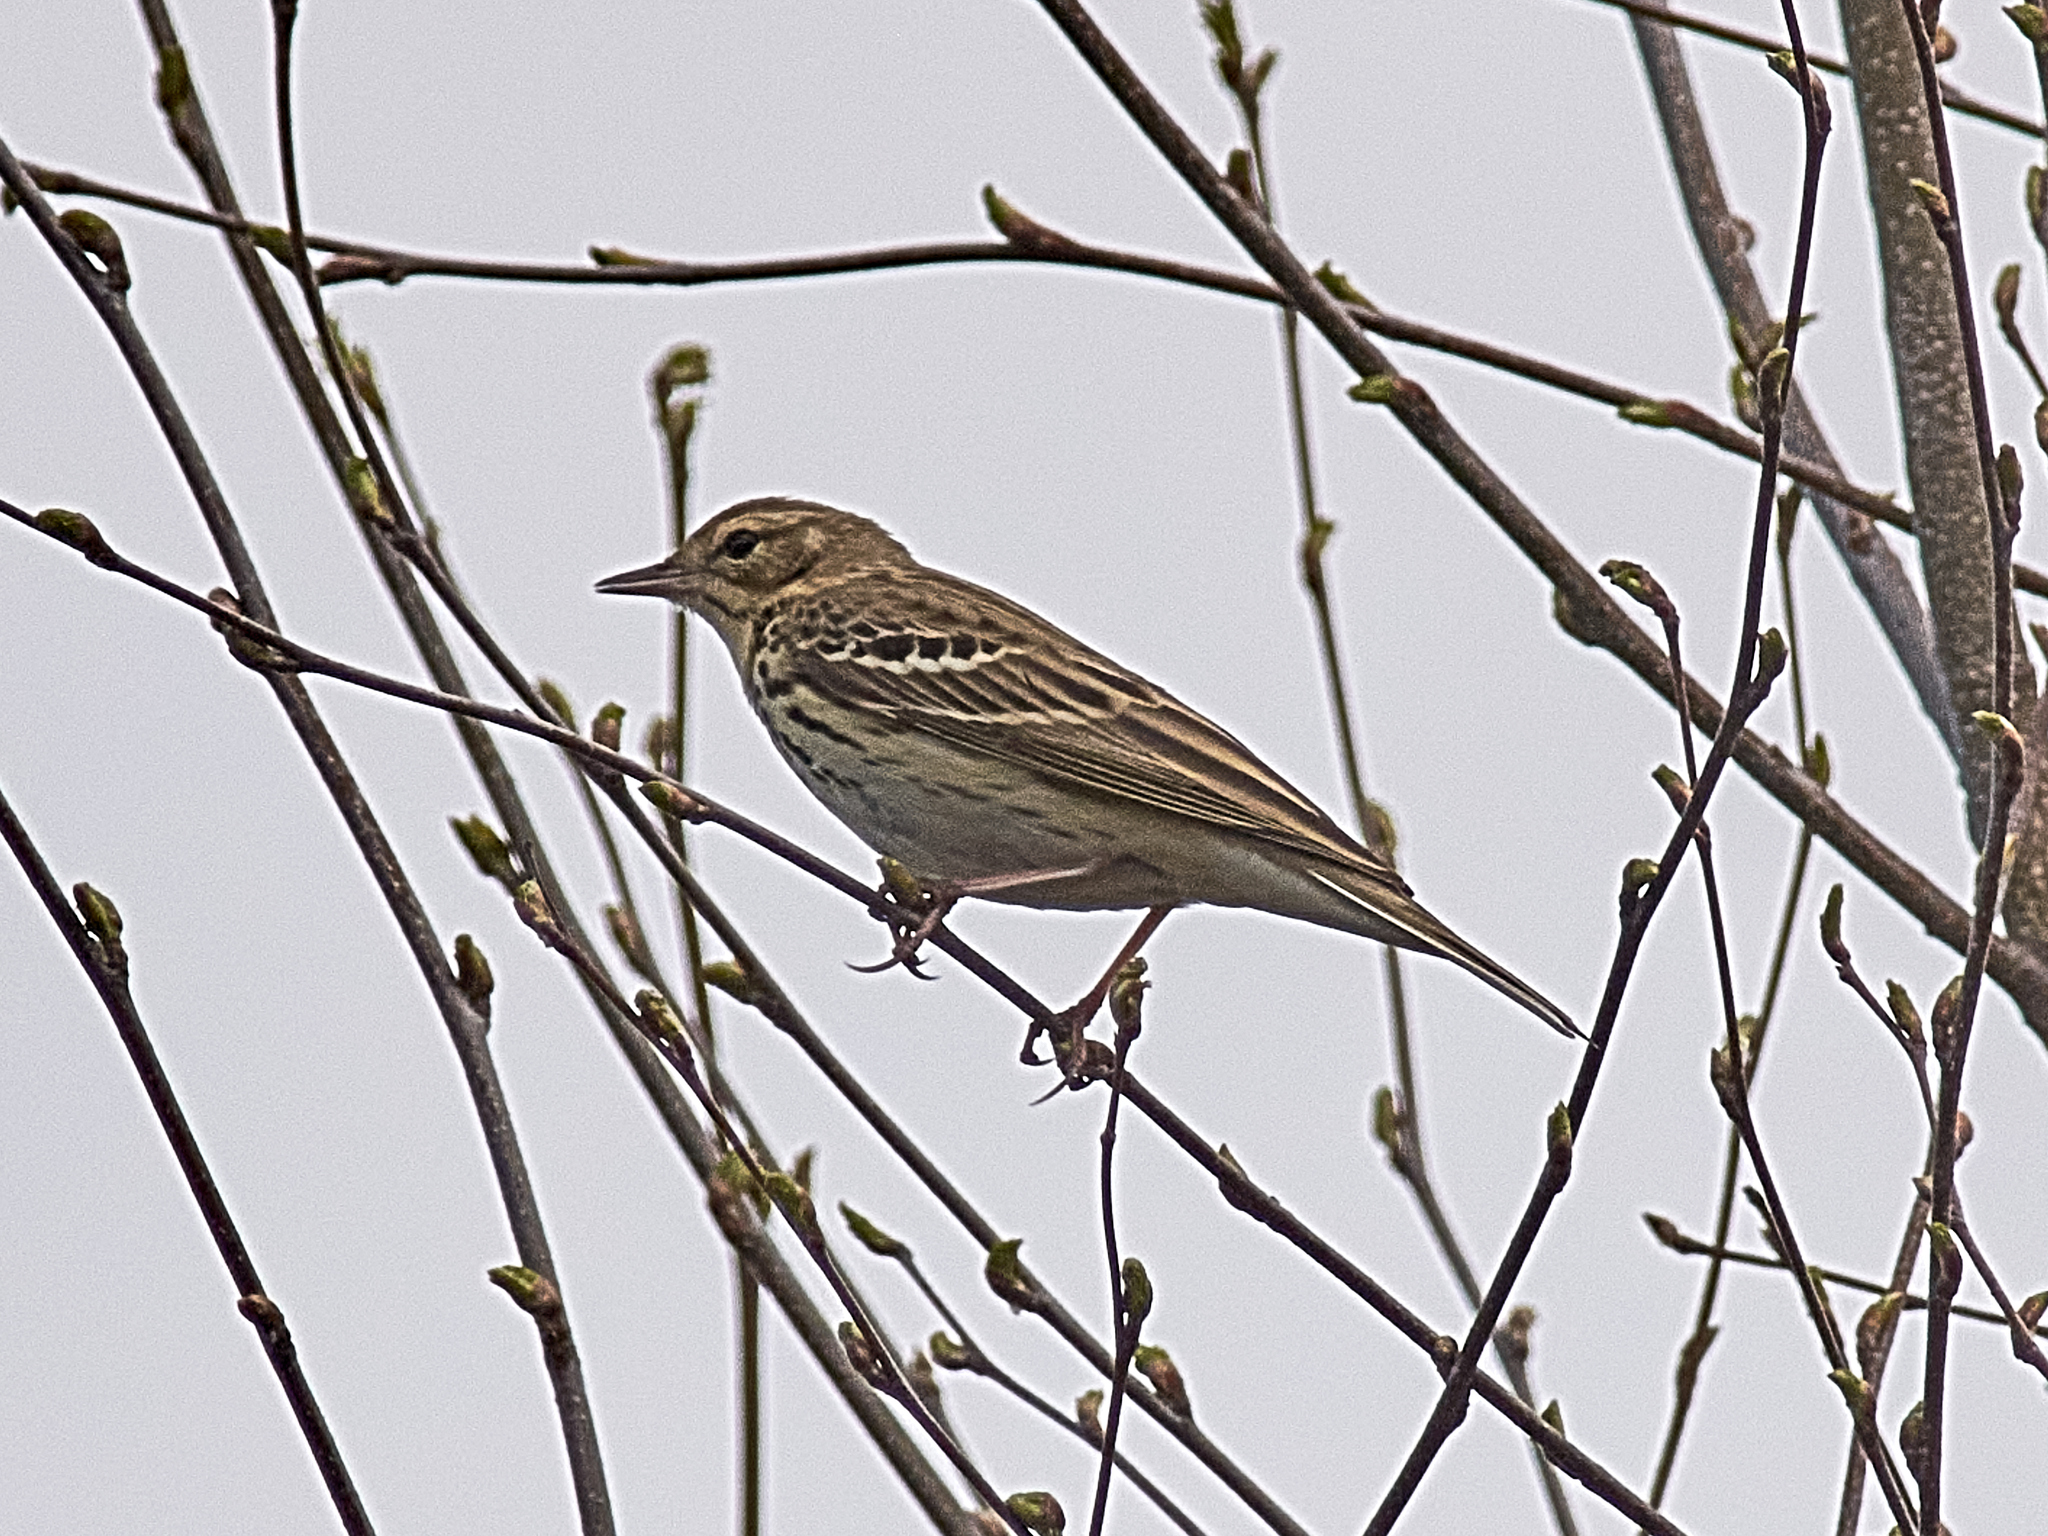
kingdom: Animalia
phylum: Chordata
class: Aves
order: Passeriformes
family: Motacillidae
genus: Anthus
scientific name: Anthus trivialis
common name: Tree pipit
